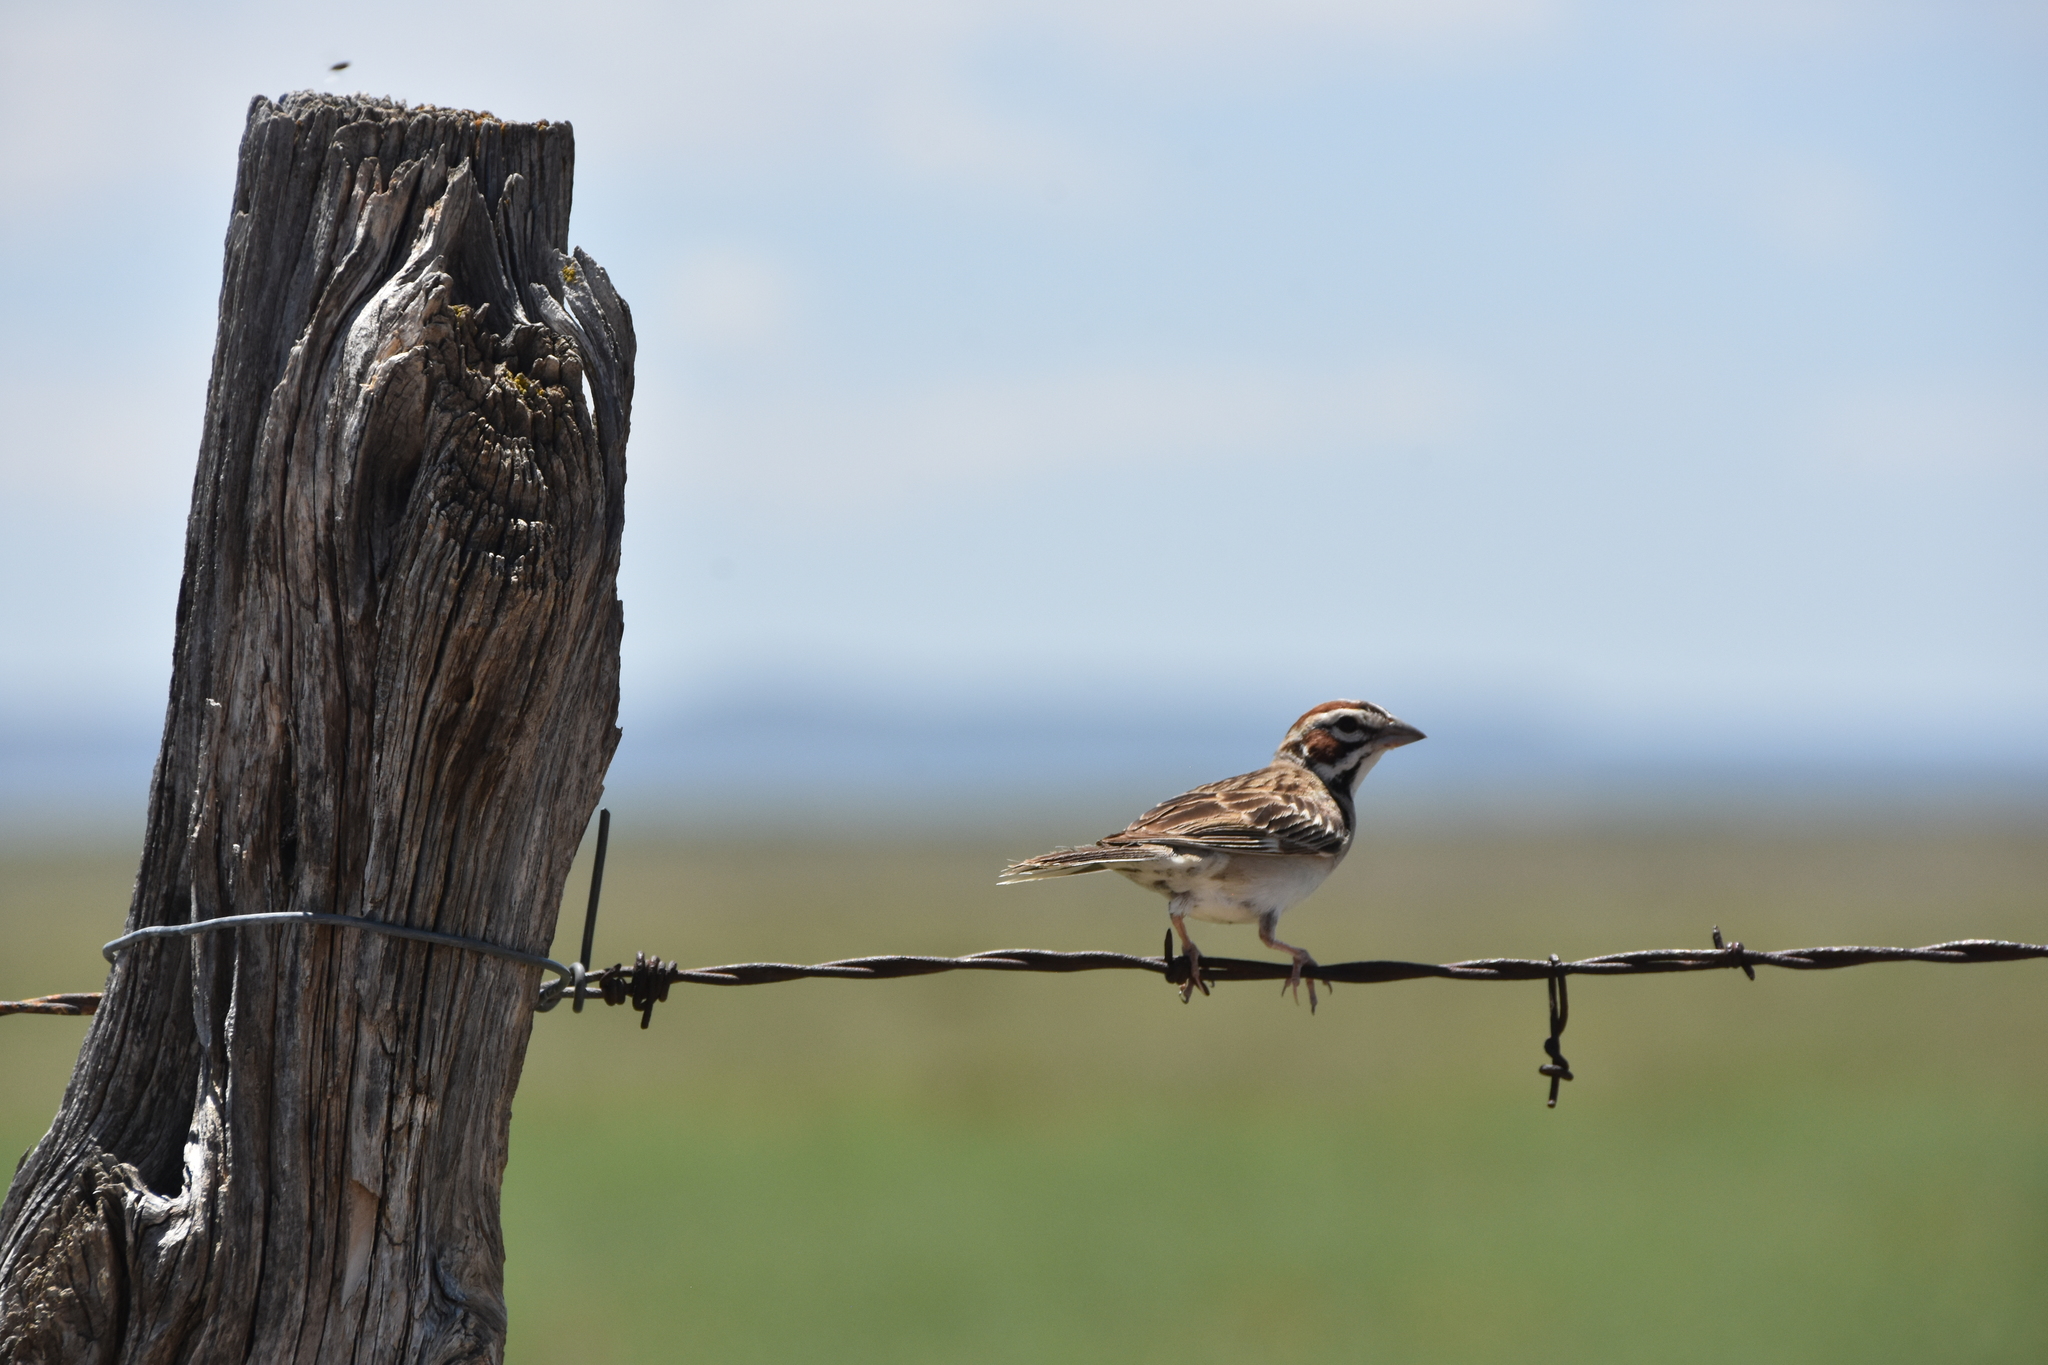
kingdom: Animalia
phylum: Chordata
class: Aves
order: Passeriformes
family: Passerellidae
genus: Chondestes
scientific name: Chondestes grammacus
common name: Lark sparrow
